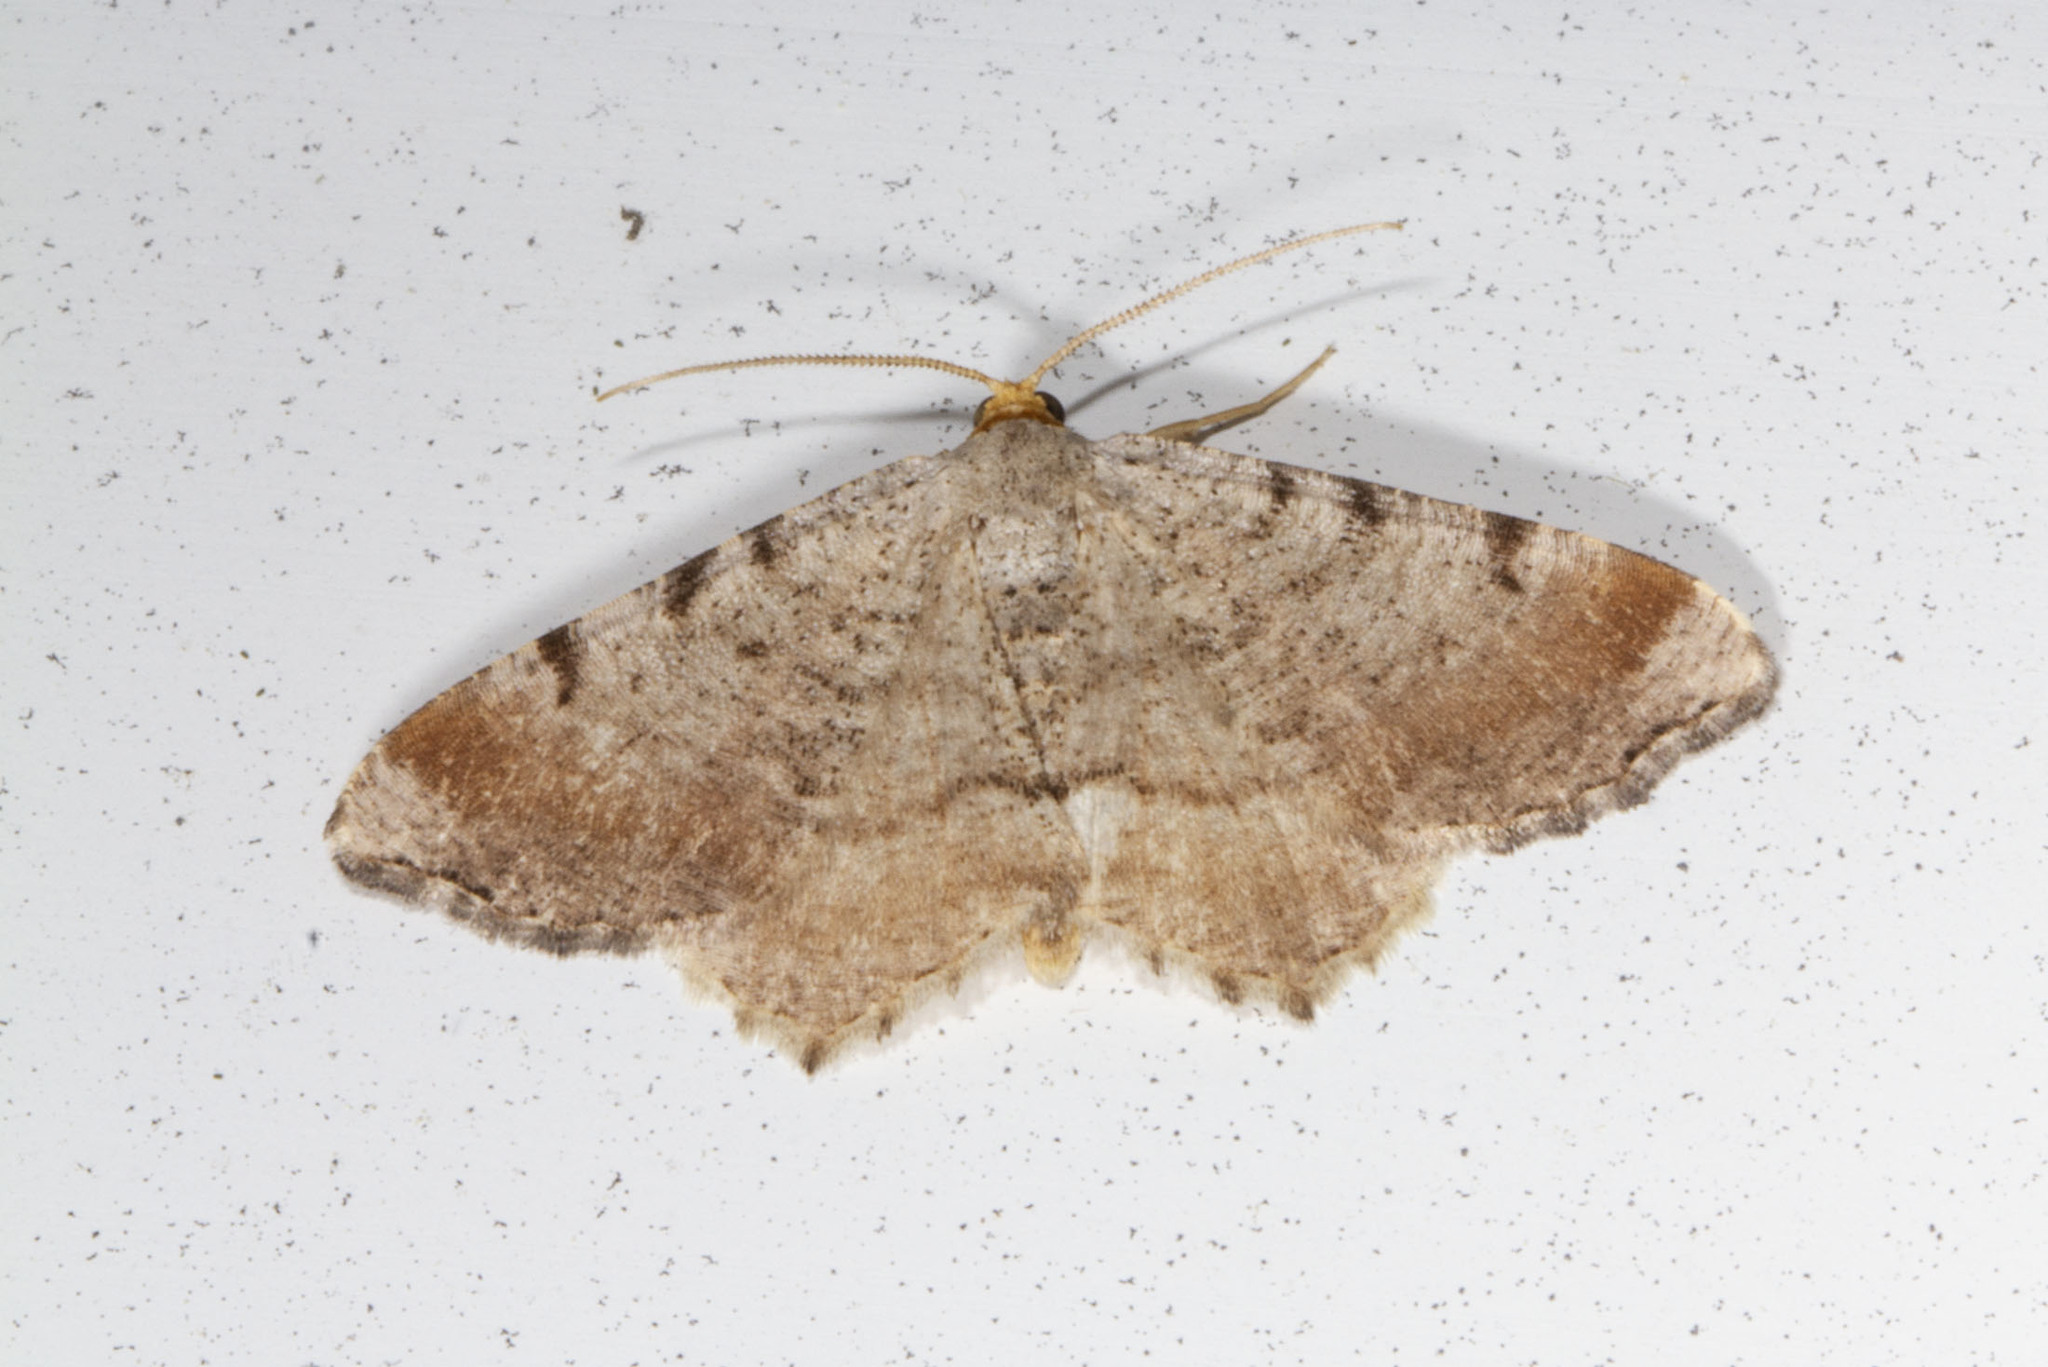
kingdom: Animalia
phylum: Arthropoda
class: Insecta
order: Lepidoptera
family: Geometridae
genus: Macaria
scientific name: Macaria minorata
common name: Minor angle moth
